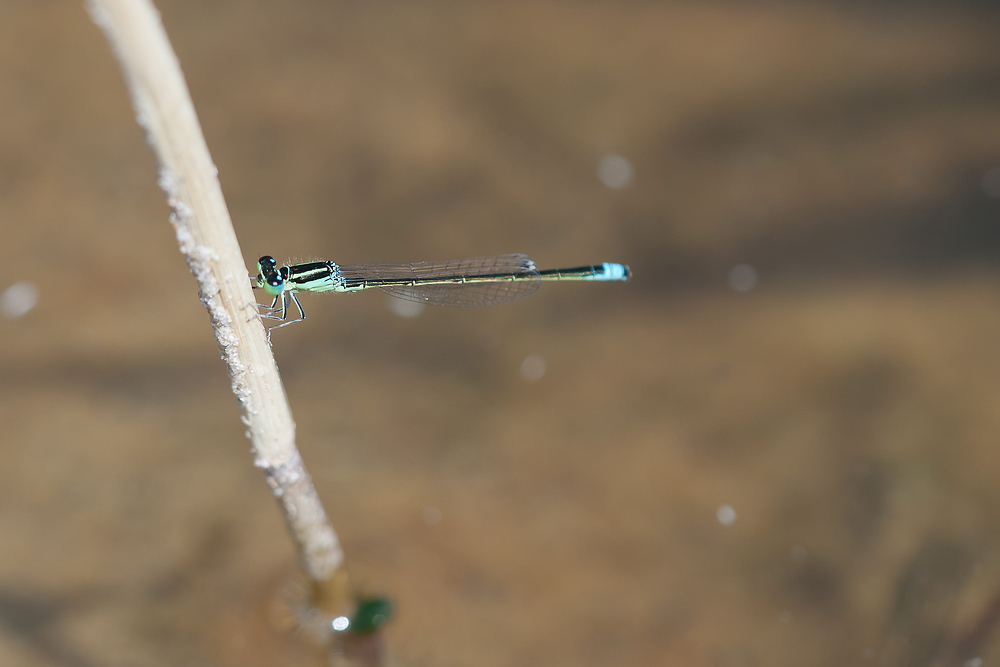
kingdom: Animalia
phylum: Arthropoda
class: Insecta
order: Odonata
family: Coenagrionidae
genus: Ischnura
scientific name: Ischnura pumilio
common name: Scarce blue-tailed damselfly
